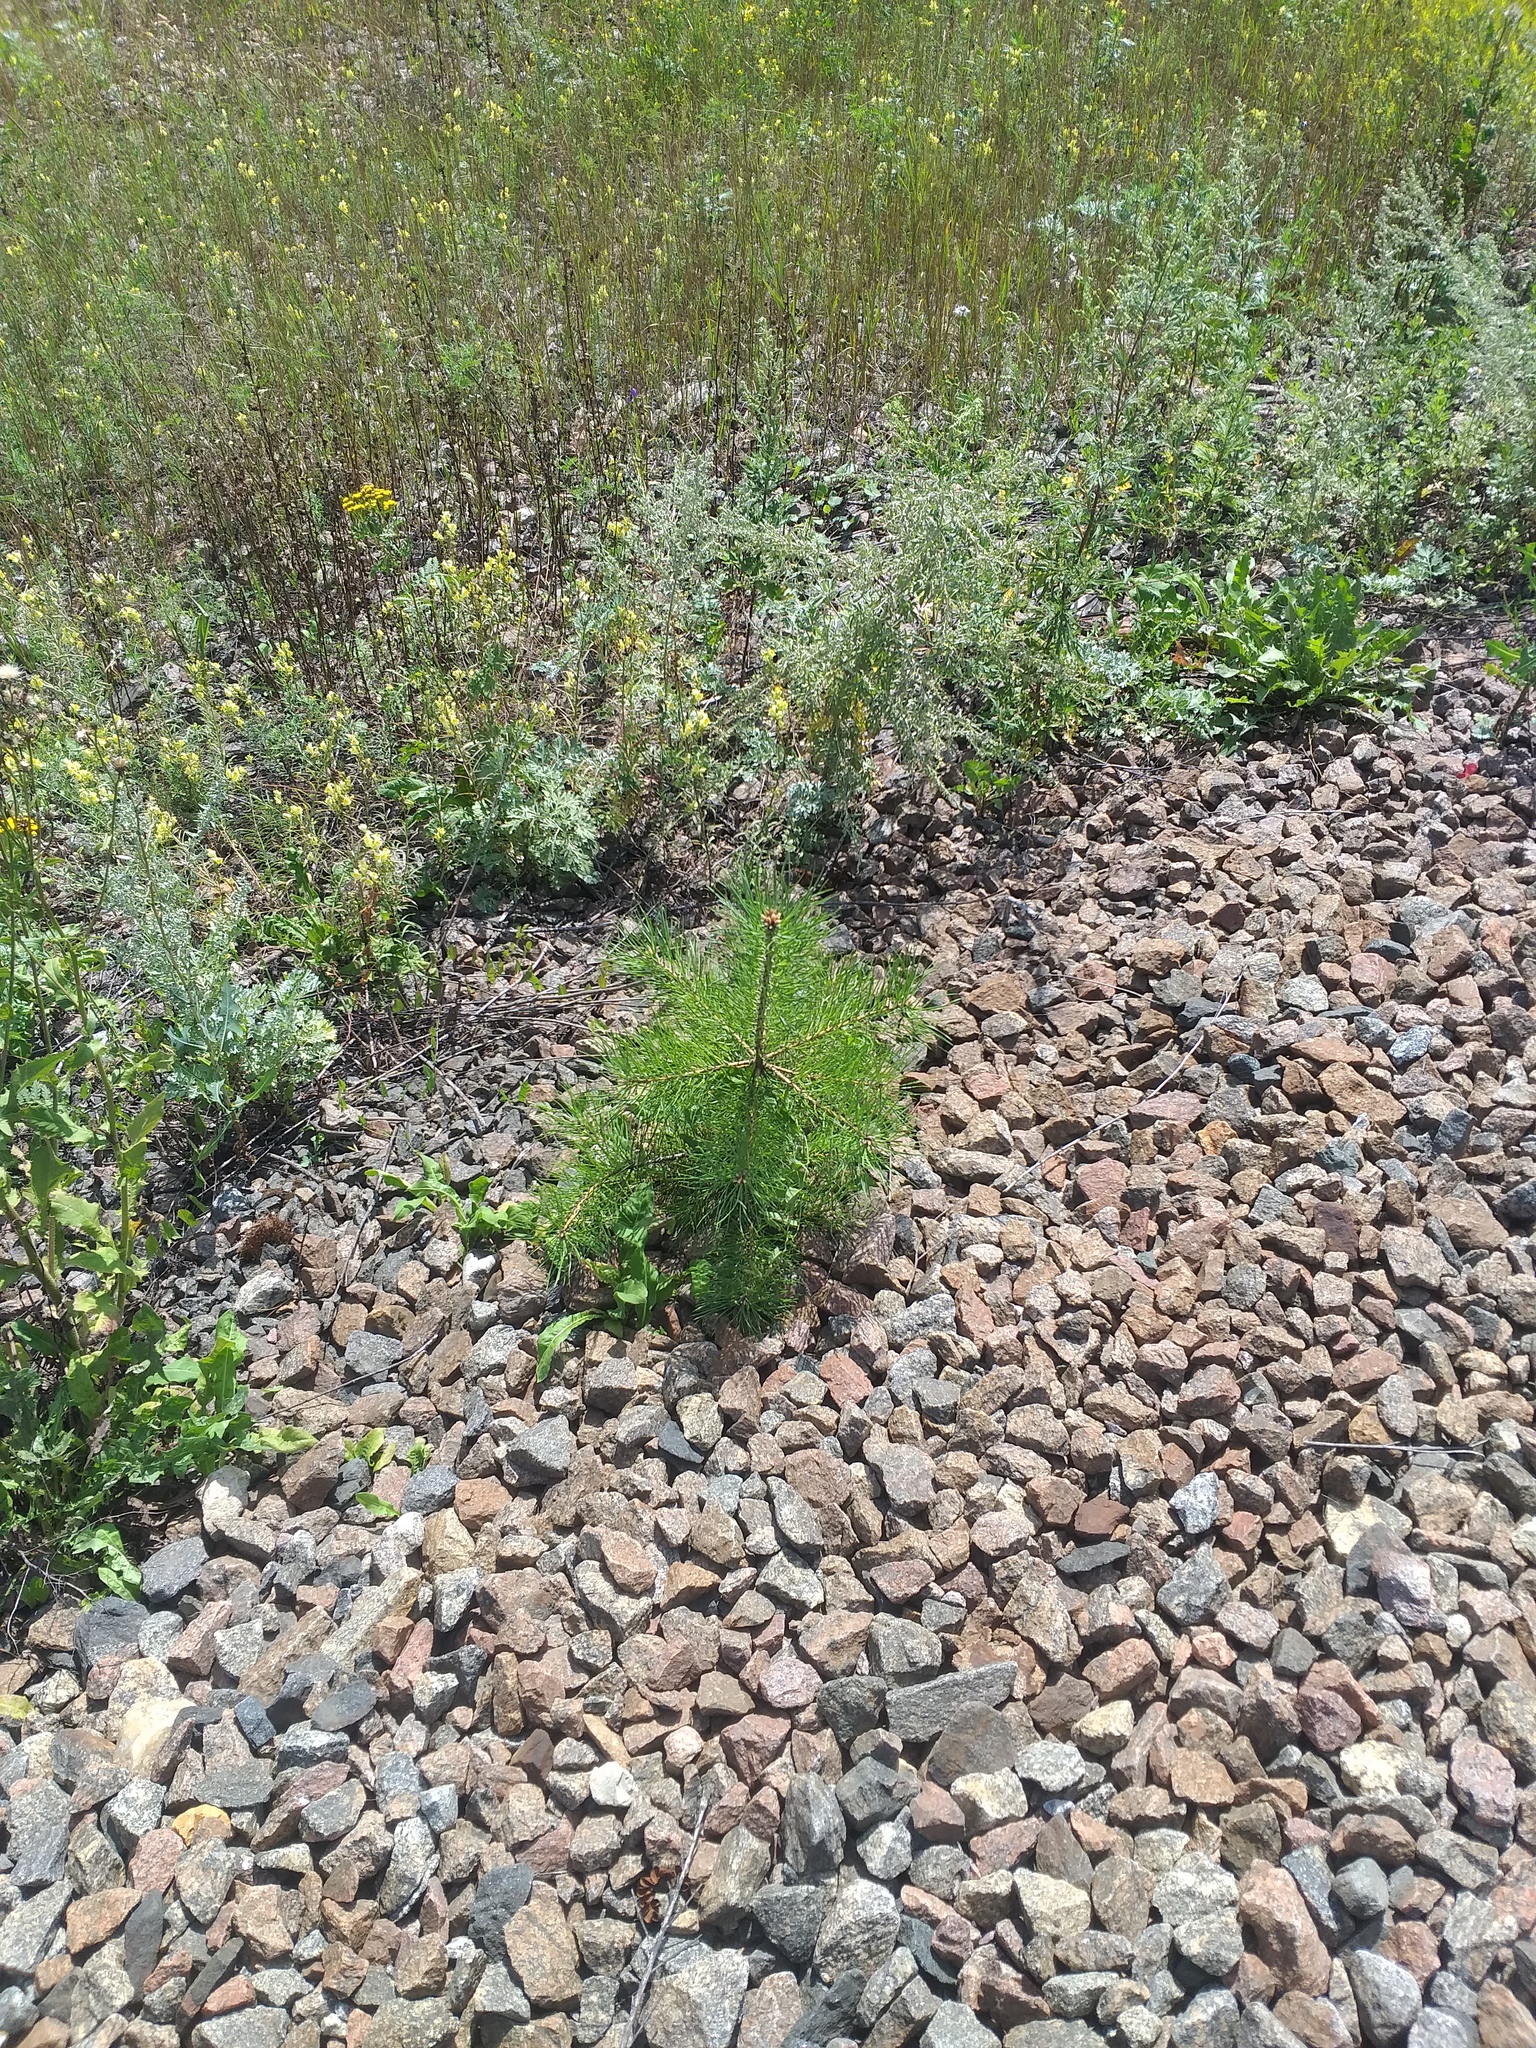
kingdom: Plantae
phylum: Tracheophyta
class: Pinopsida
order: Pinales
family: Pinaceae
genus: Pinus
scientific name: Pinus sylvestris
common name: Scots pine
